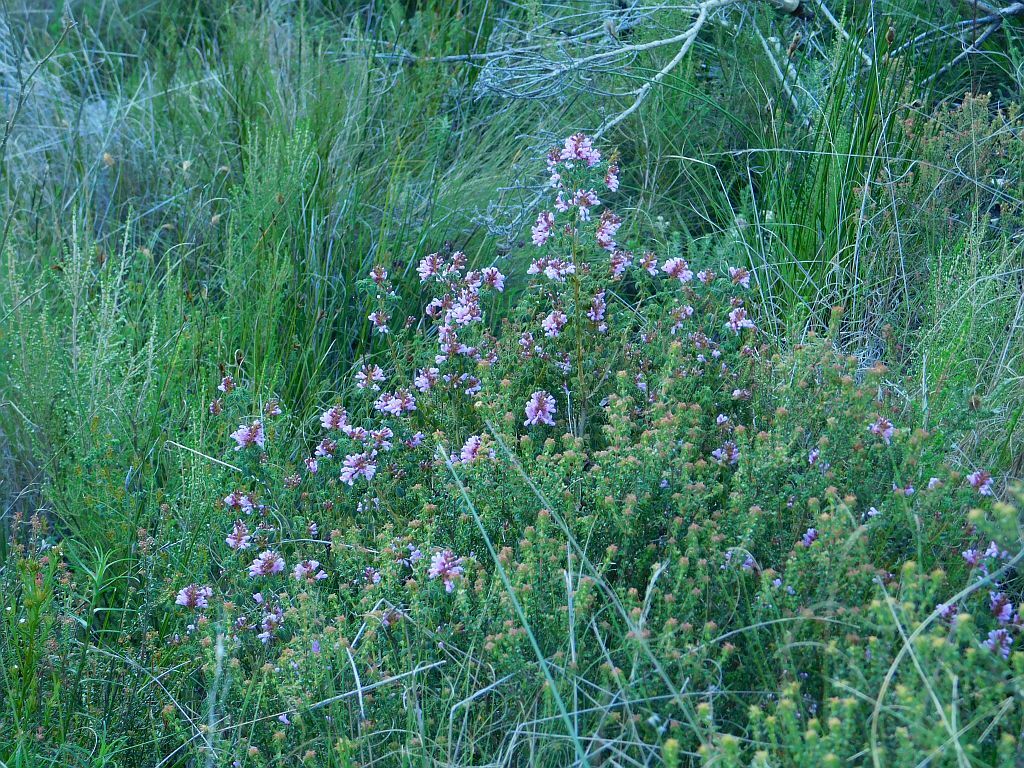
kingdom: Plantae
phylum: Tracheophyta
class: Magnoliopsida
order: Fabales
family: Fabaceae
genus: Hypocalyptus
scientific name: Hypocalyptus oxalidifolius
